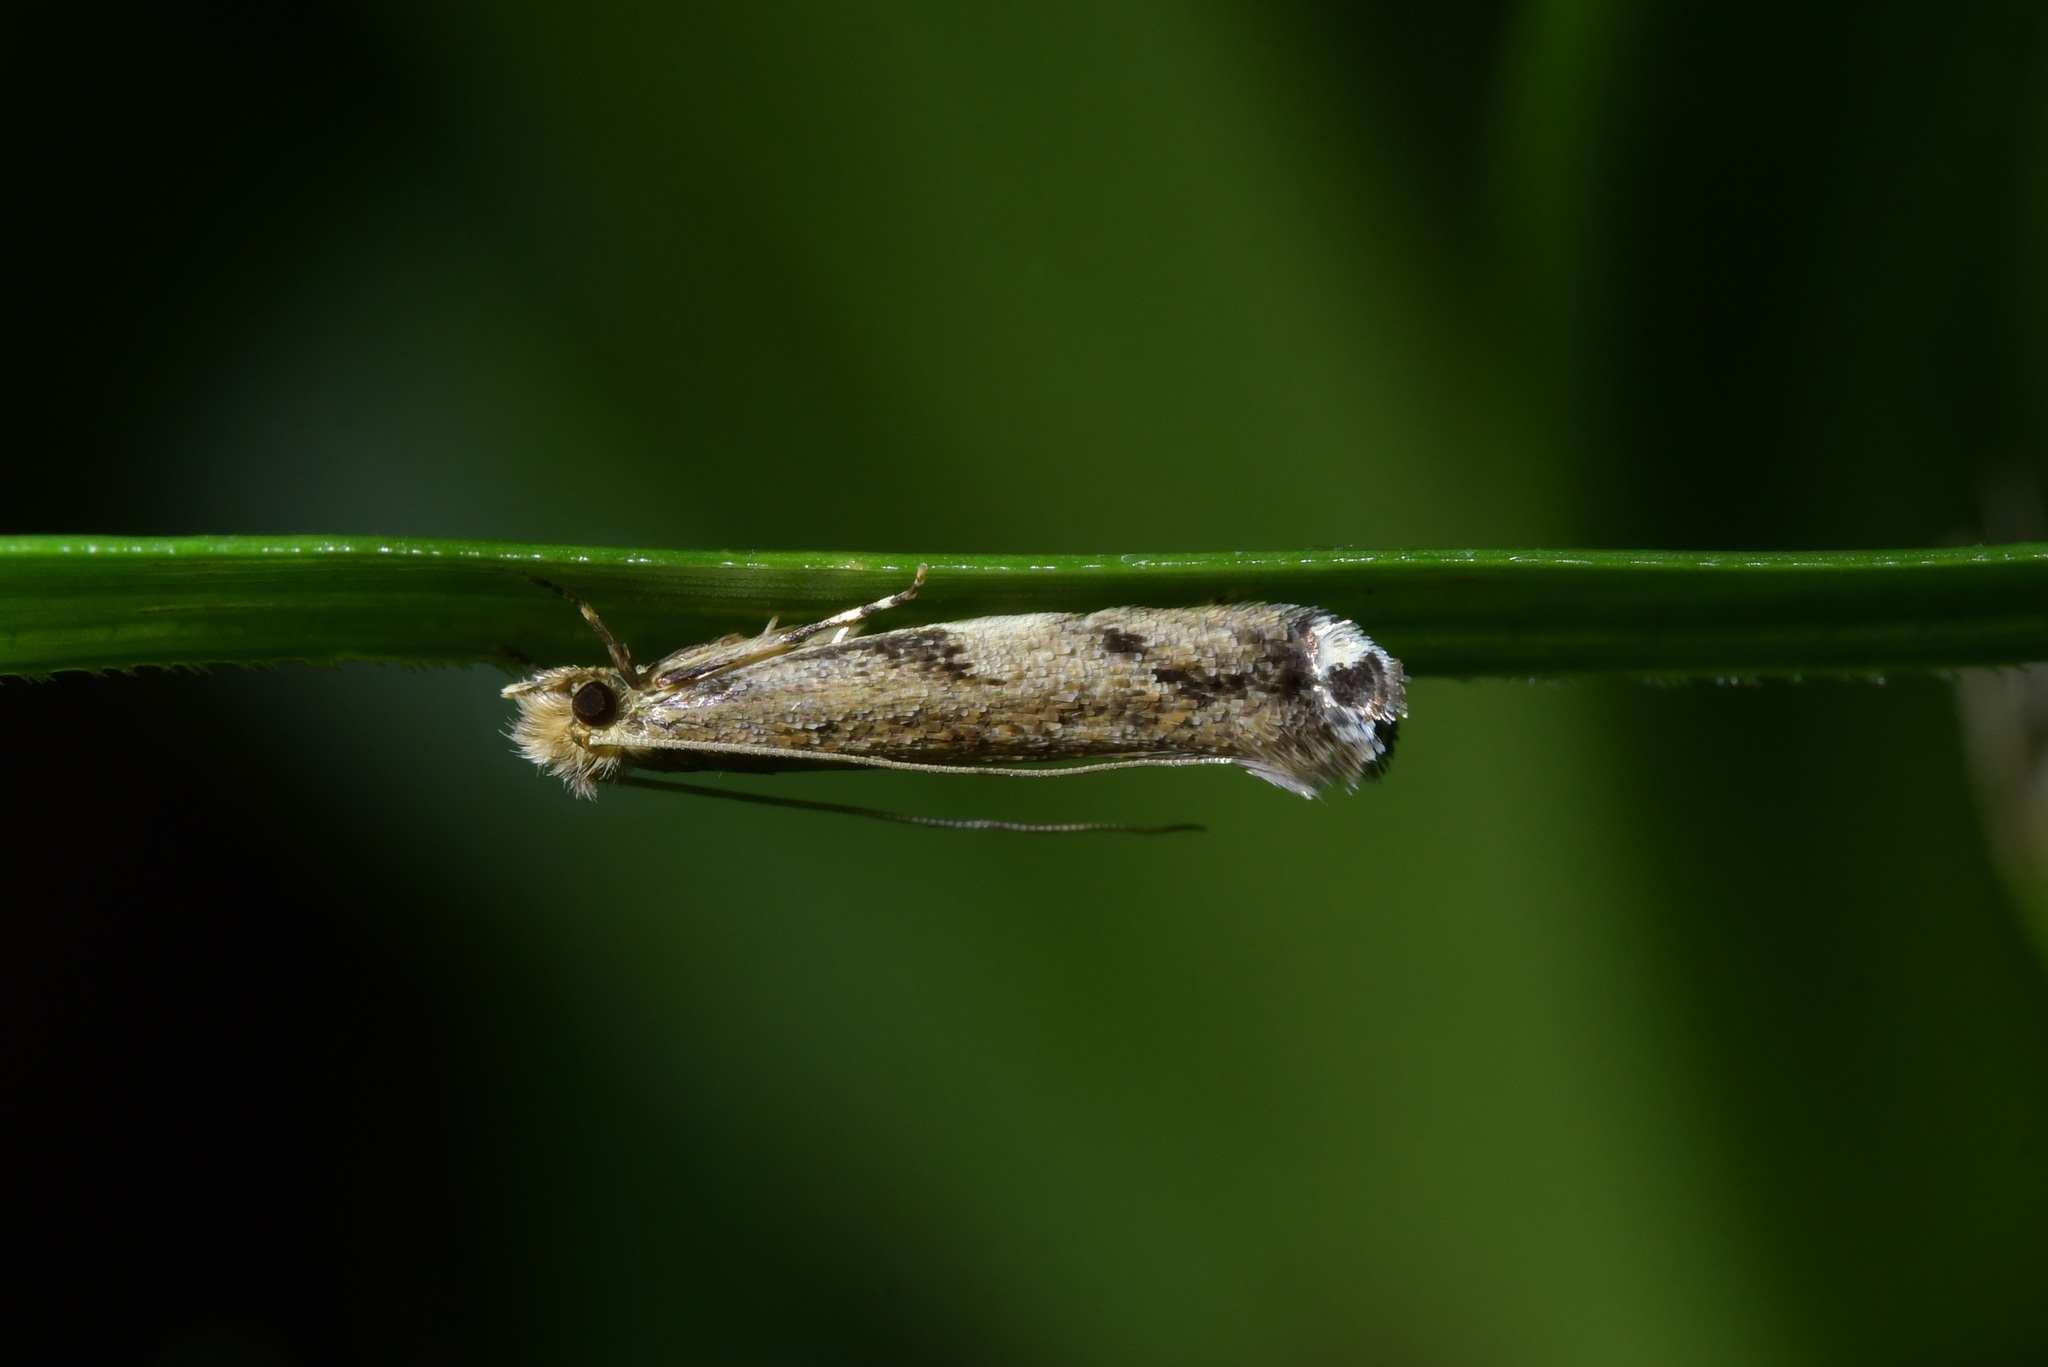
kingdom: Animalia
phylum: Arthropoda
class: Insecta
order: Lepidoptera
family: Tineidae
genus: Erechthias
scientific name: Erechthias acrodina
